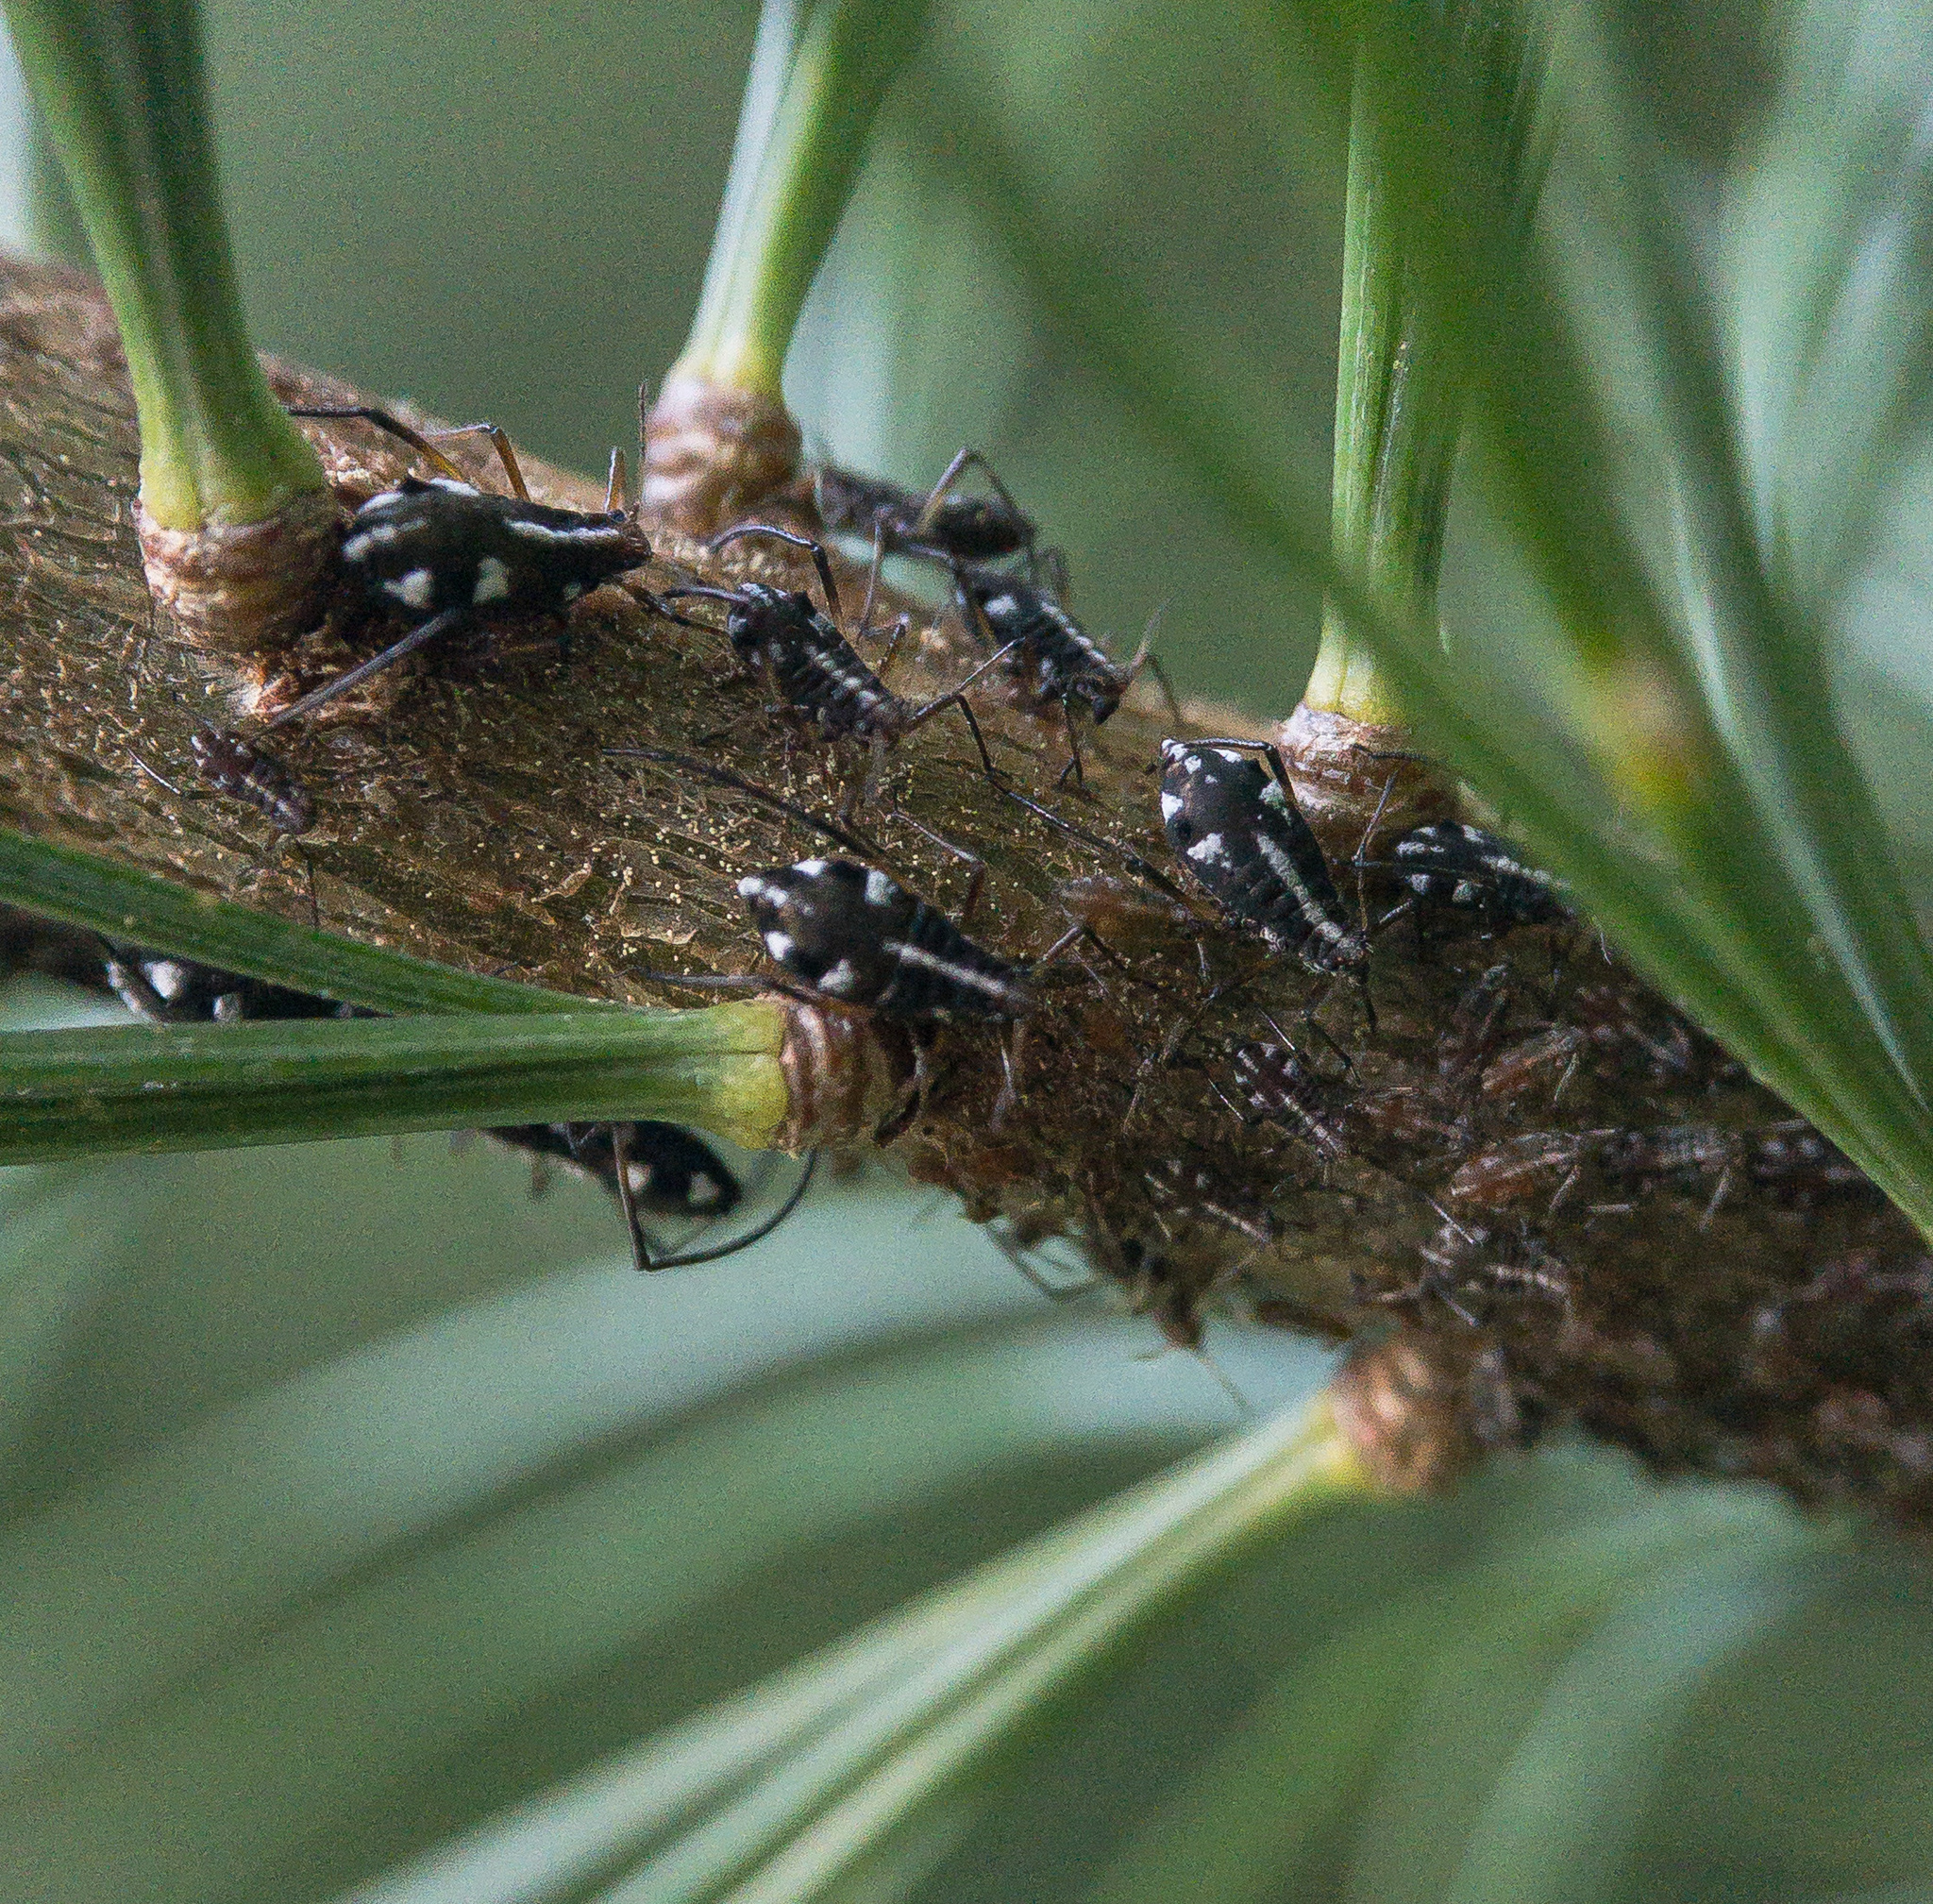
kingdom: Animalia
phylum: Arthropoda
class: Insecta
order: Hemiptera
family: Aphididae
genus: Cinara
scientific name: Cinara strobi
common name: White pine aphid
